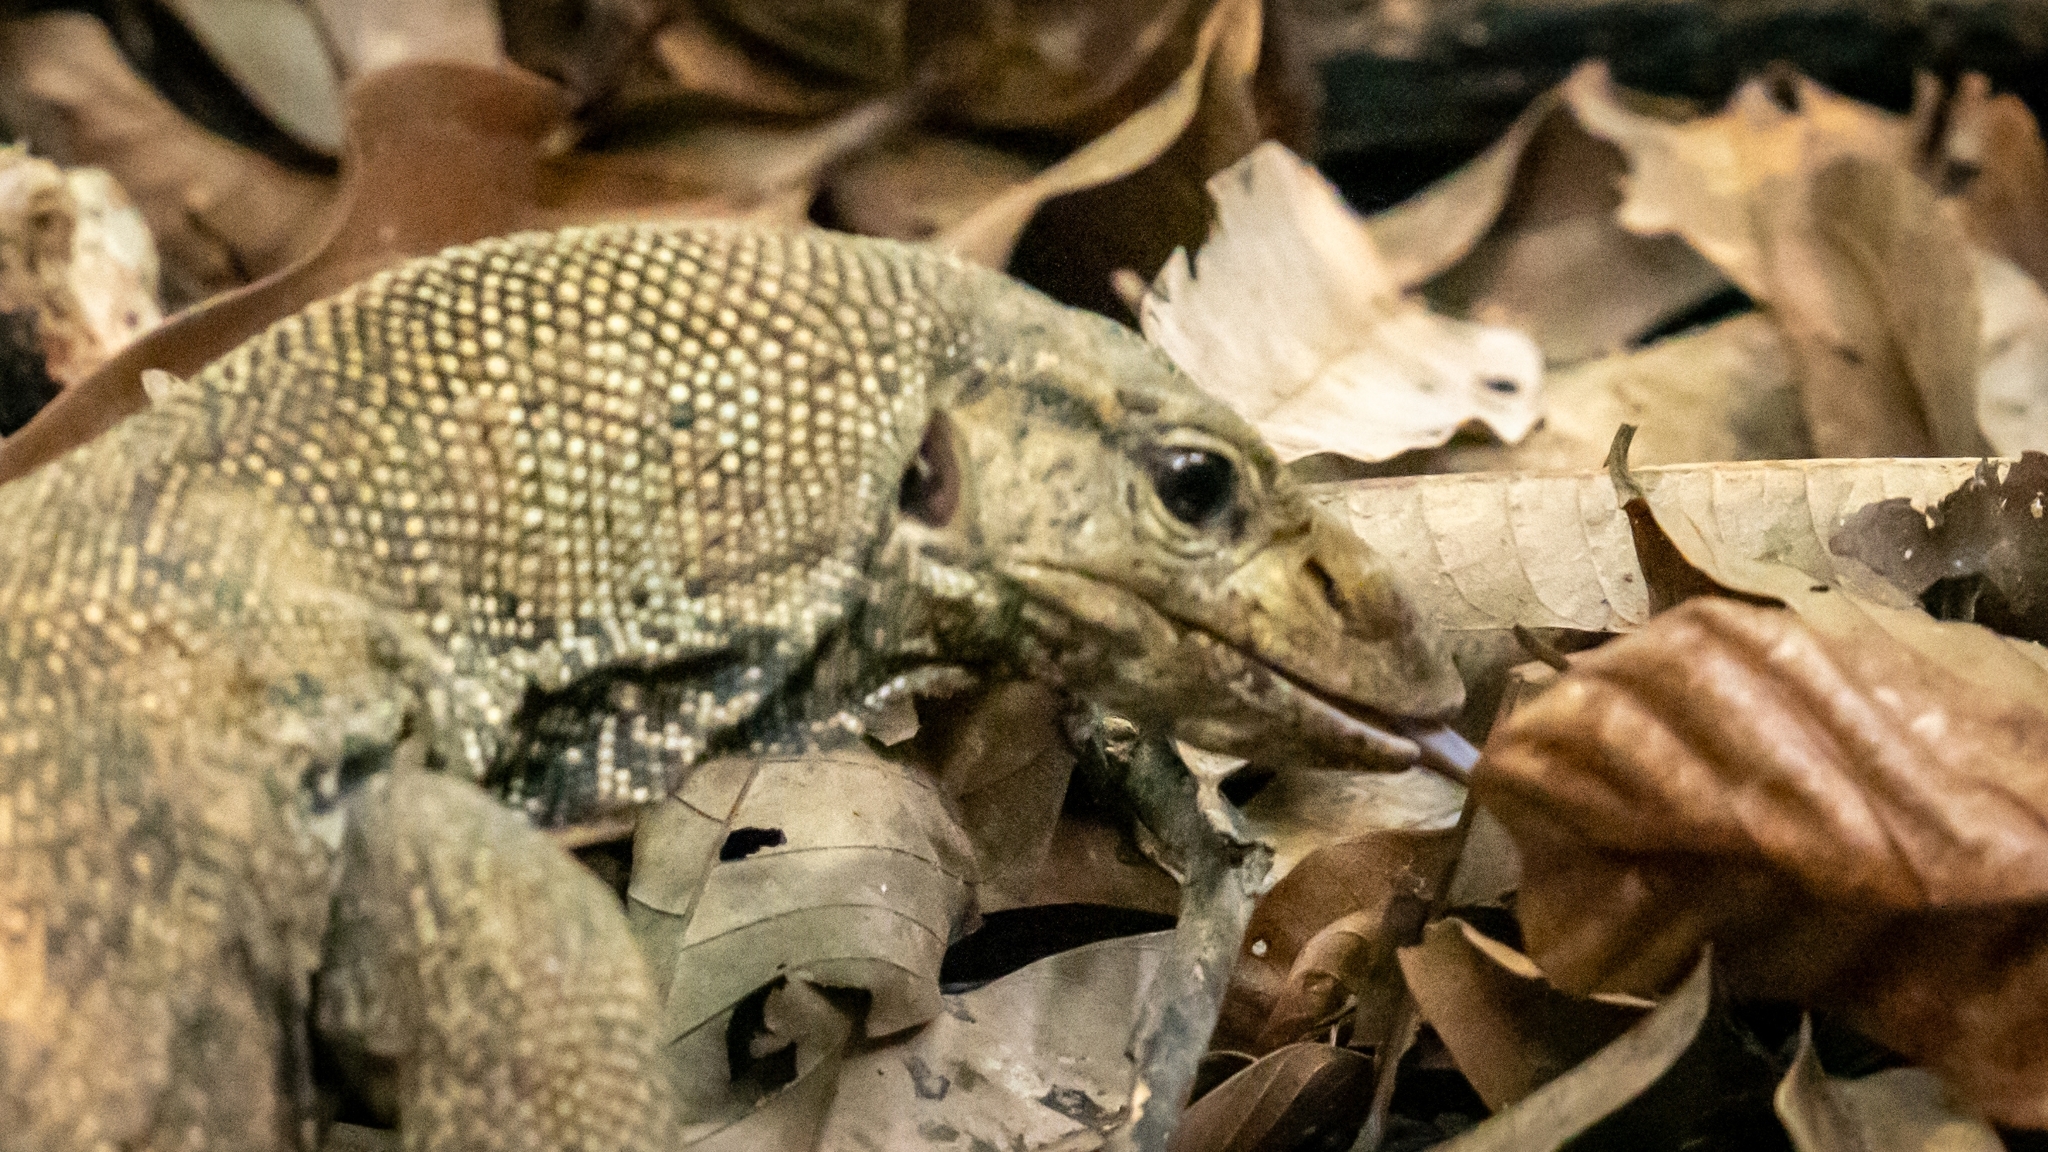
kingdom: Animalia
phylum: Chordata
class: Squamata
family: Varanidae
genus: Varanus
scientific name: Varanus nebulosus
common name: Clouded monitor
